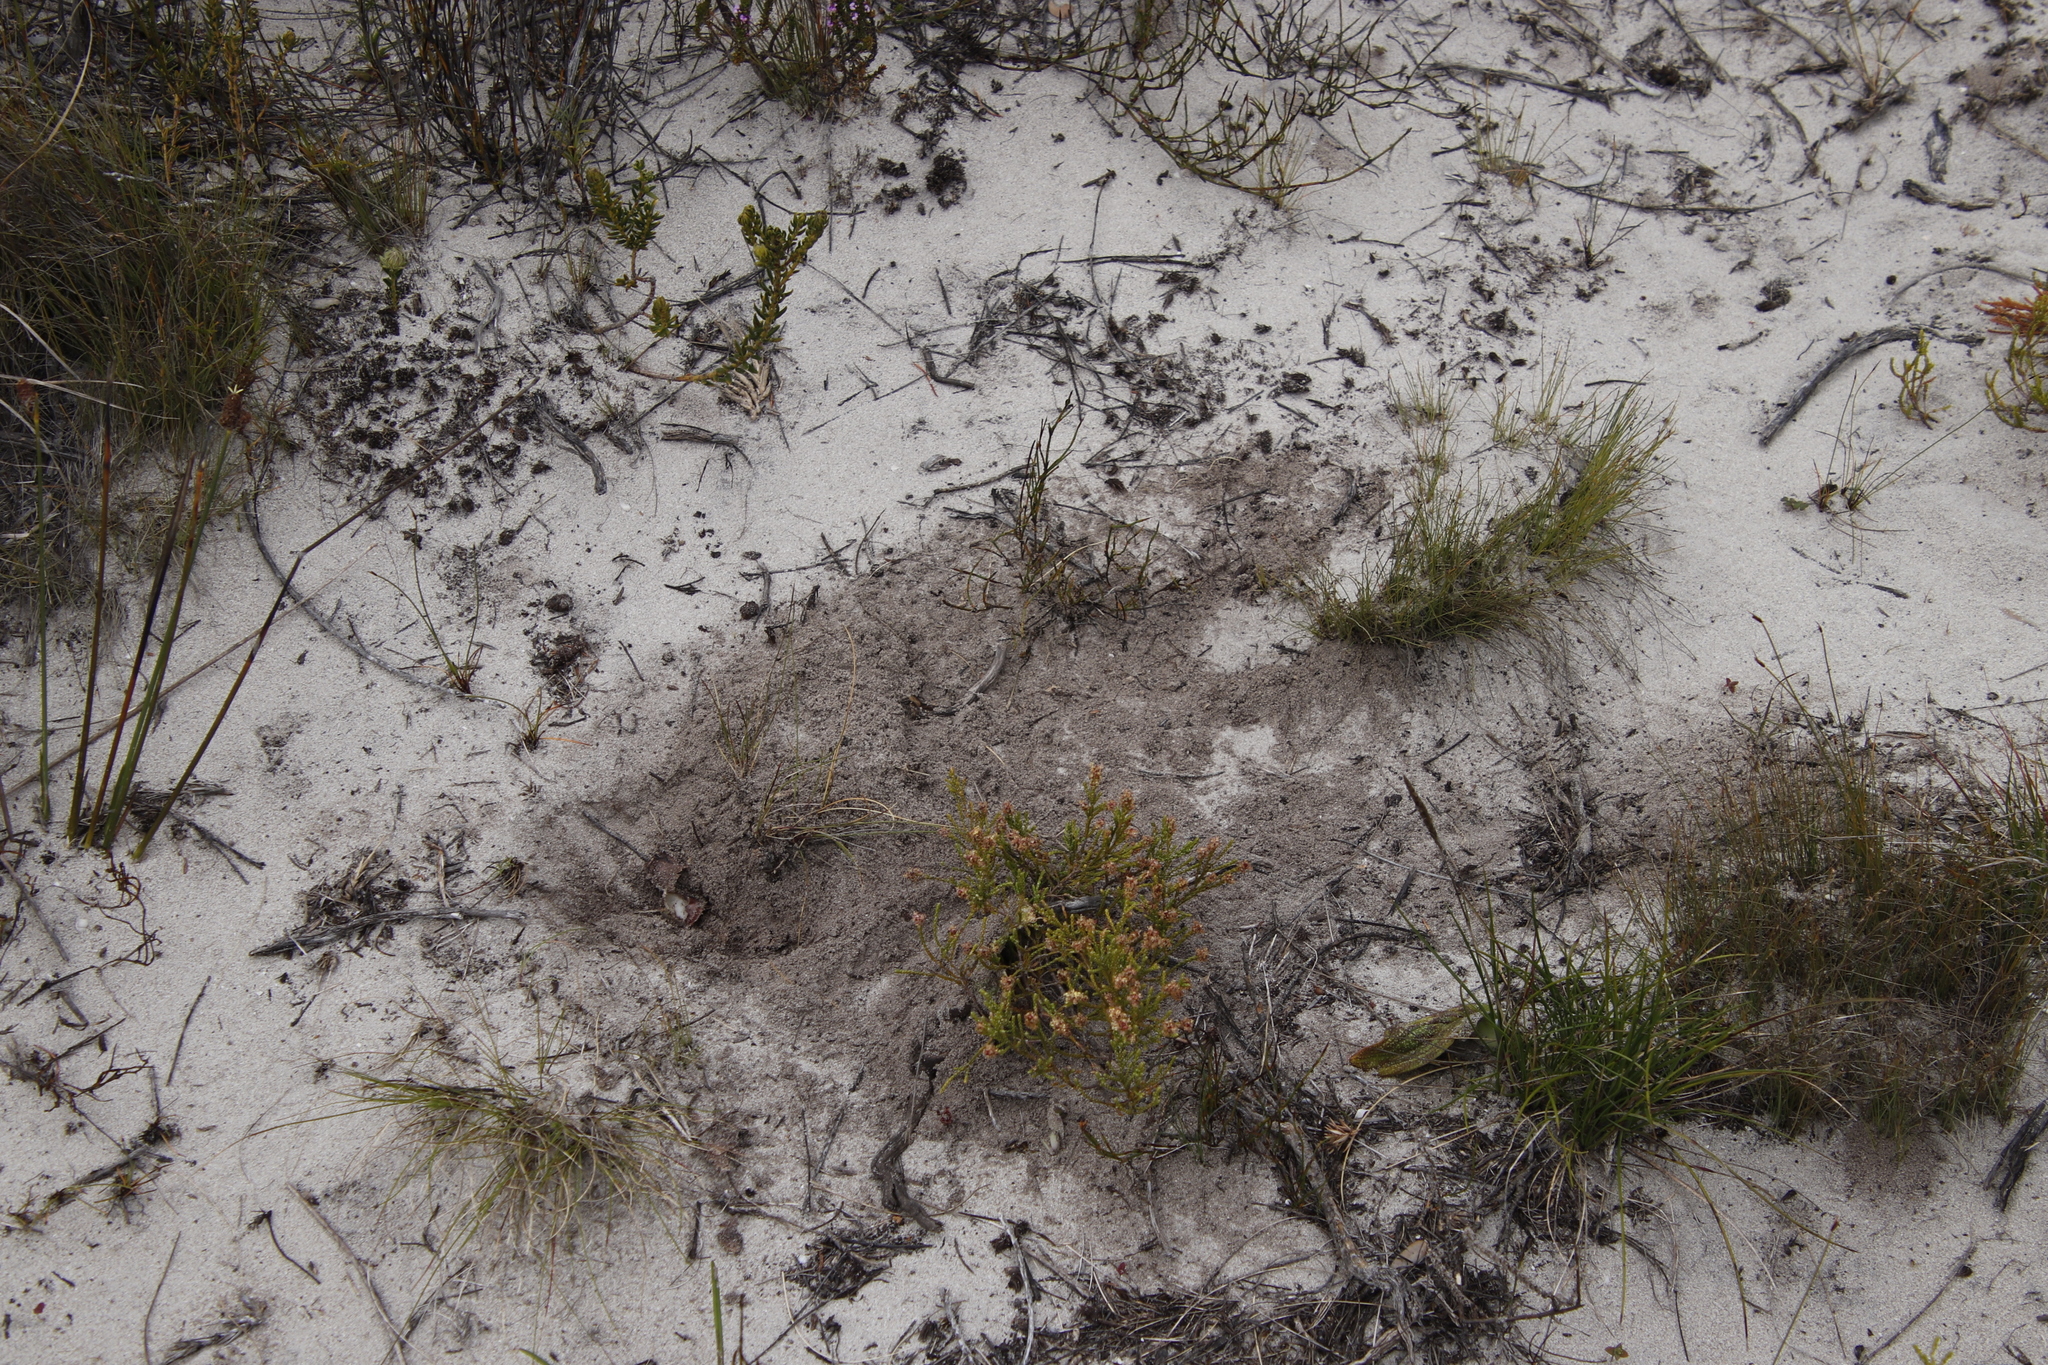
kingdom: Animalia
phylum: Chordata
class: Mammalia
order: Rodentia
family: Hystricidae
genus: Hystrix
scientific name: Hystrix africaeaustralis
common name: Cape porcupine
